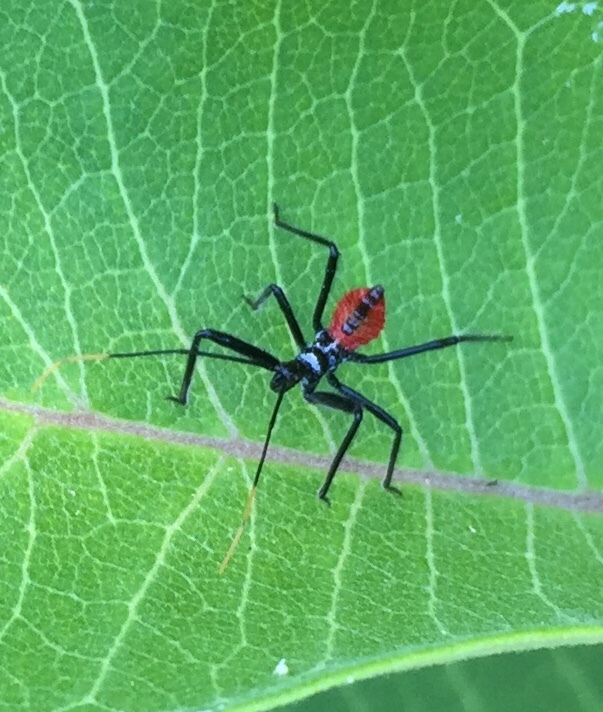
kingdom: Animalia
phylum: Arthropoda
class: Insecta
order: Hemiptera
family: Reduviidae
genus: Arilus
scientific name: Arilus cristatus
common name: North american wheel bug
